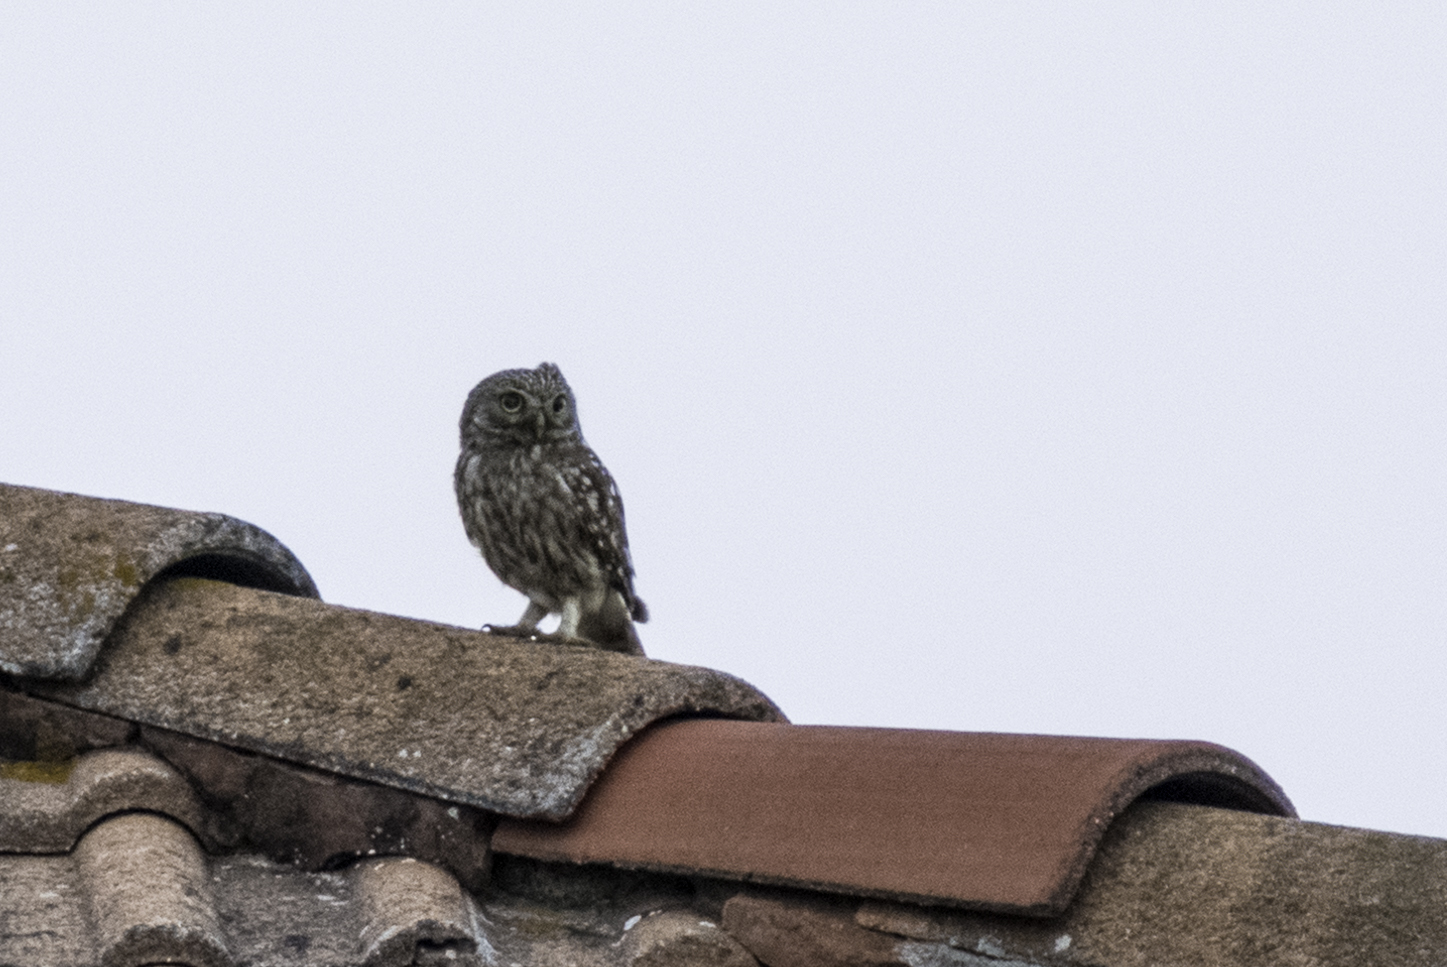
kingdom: Animalia
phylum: Chordata
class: Aves
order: Strigiformes
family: Strigidae
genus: Athene
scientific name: Athene noctua
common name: Little owl
